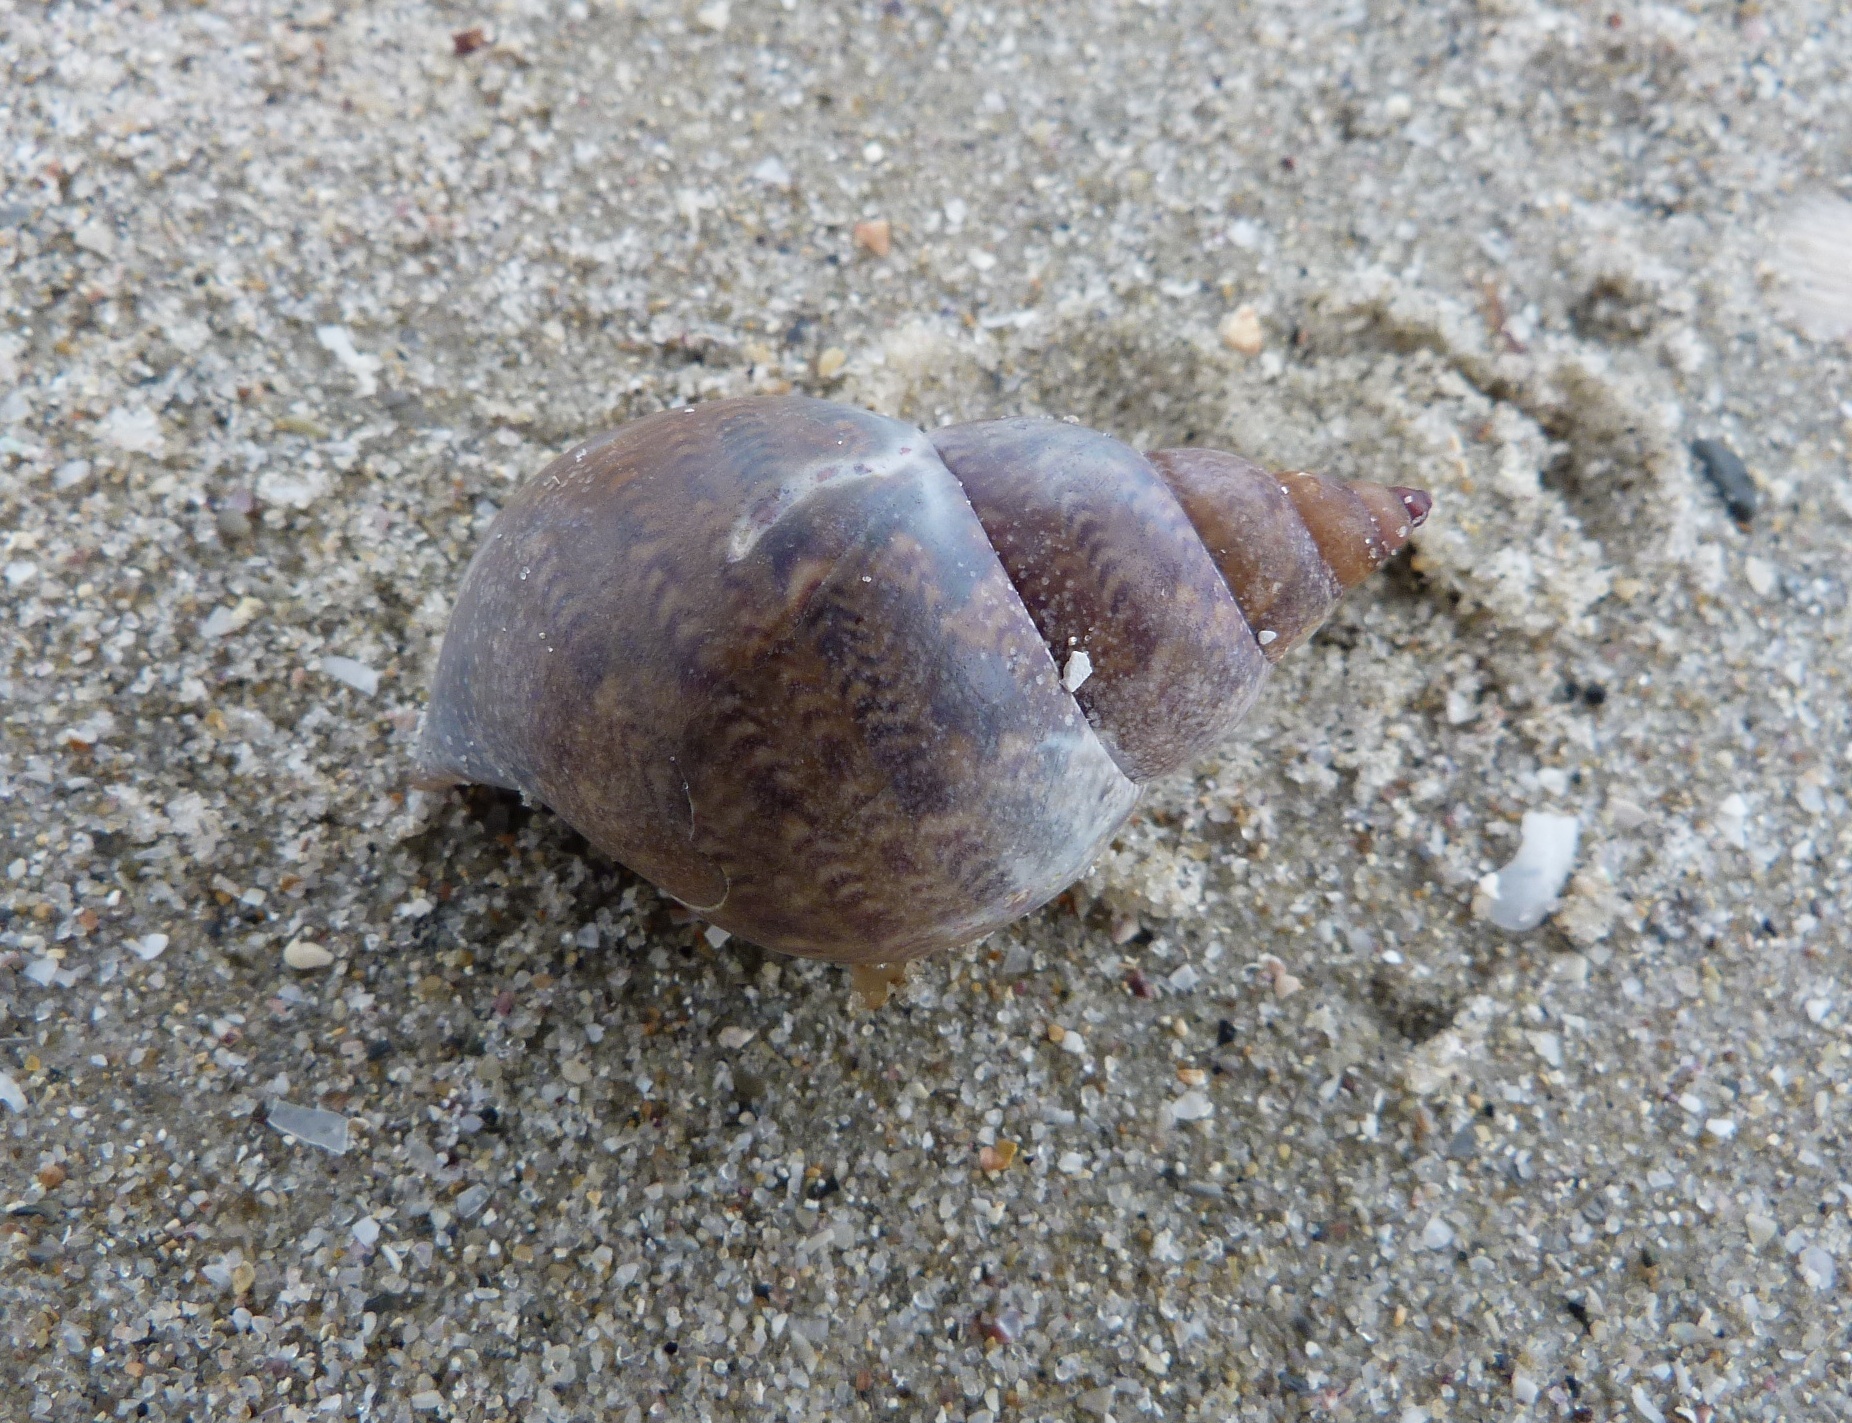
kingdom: Animalia
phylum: Mollusca
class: Gastropoda
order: Trochida
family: Phasianellidae
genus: Phasianella
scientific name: Phasianella australis
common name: Painted lady
